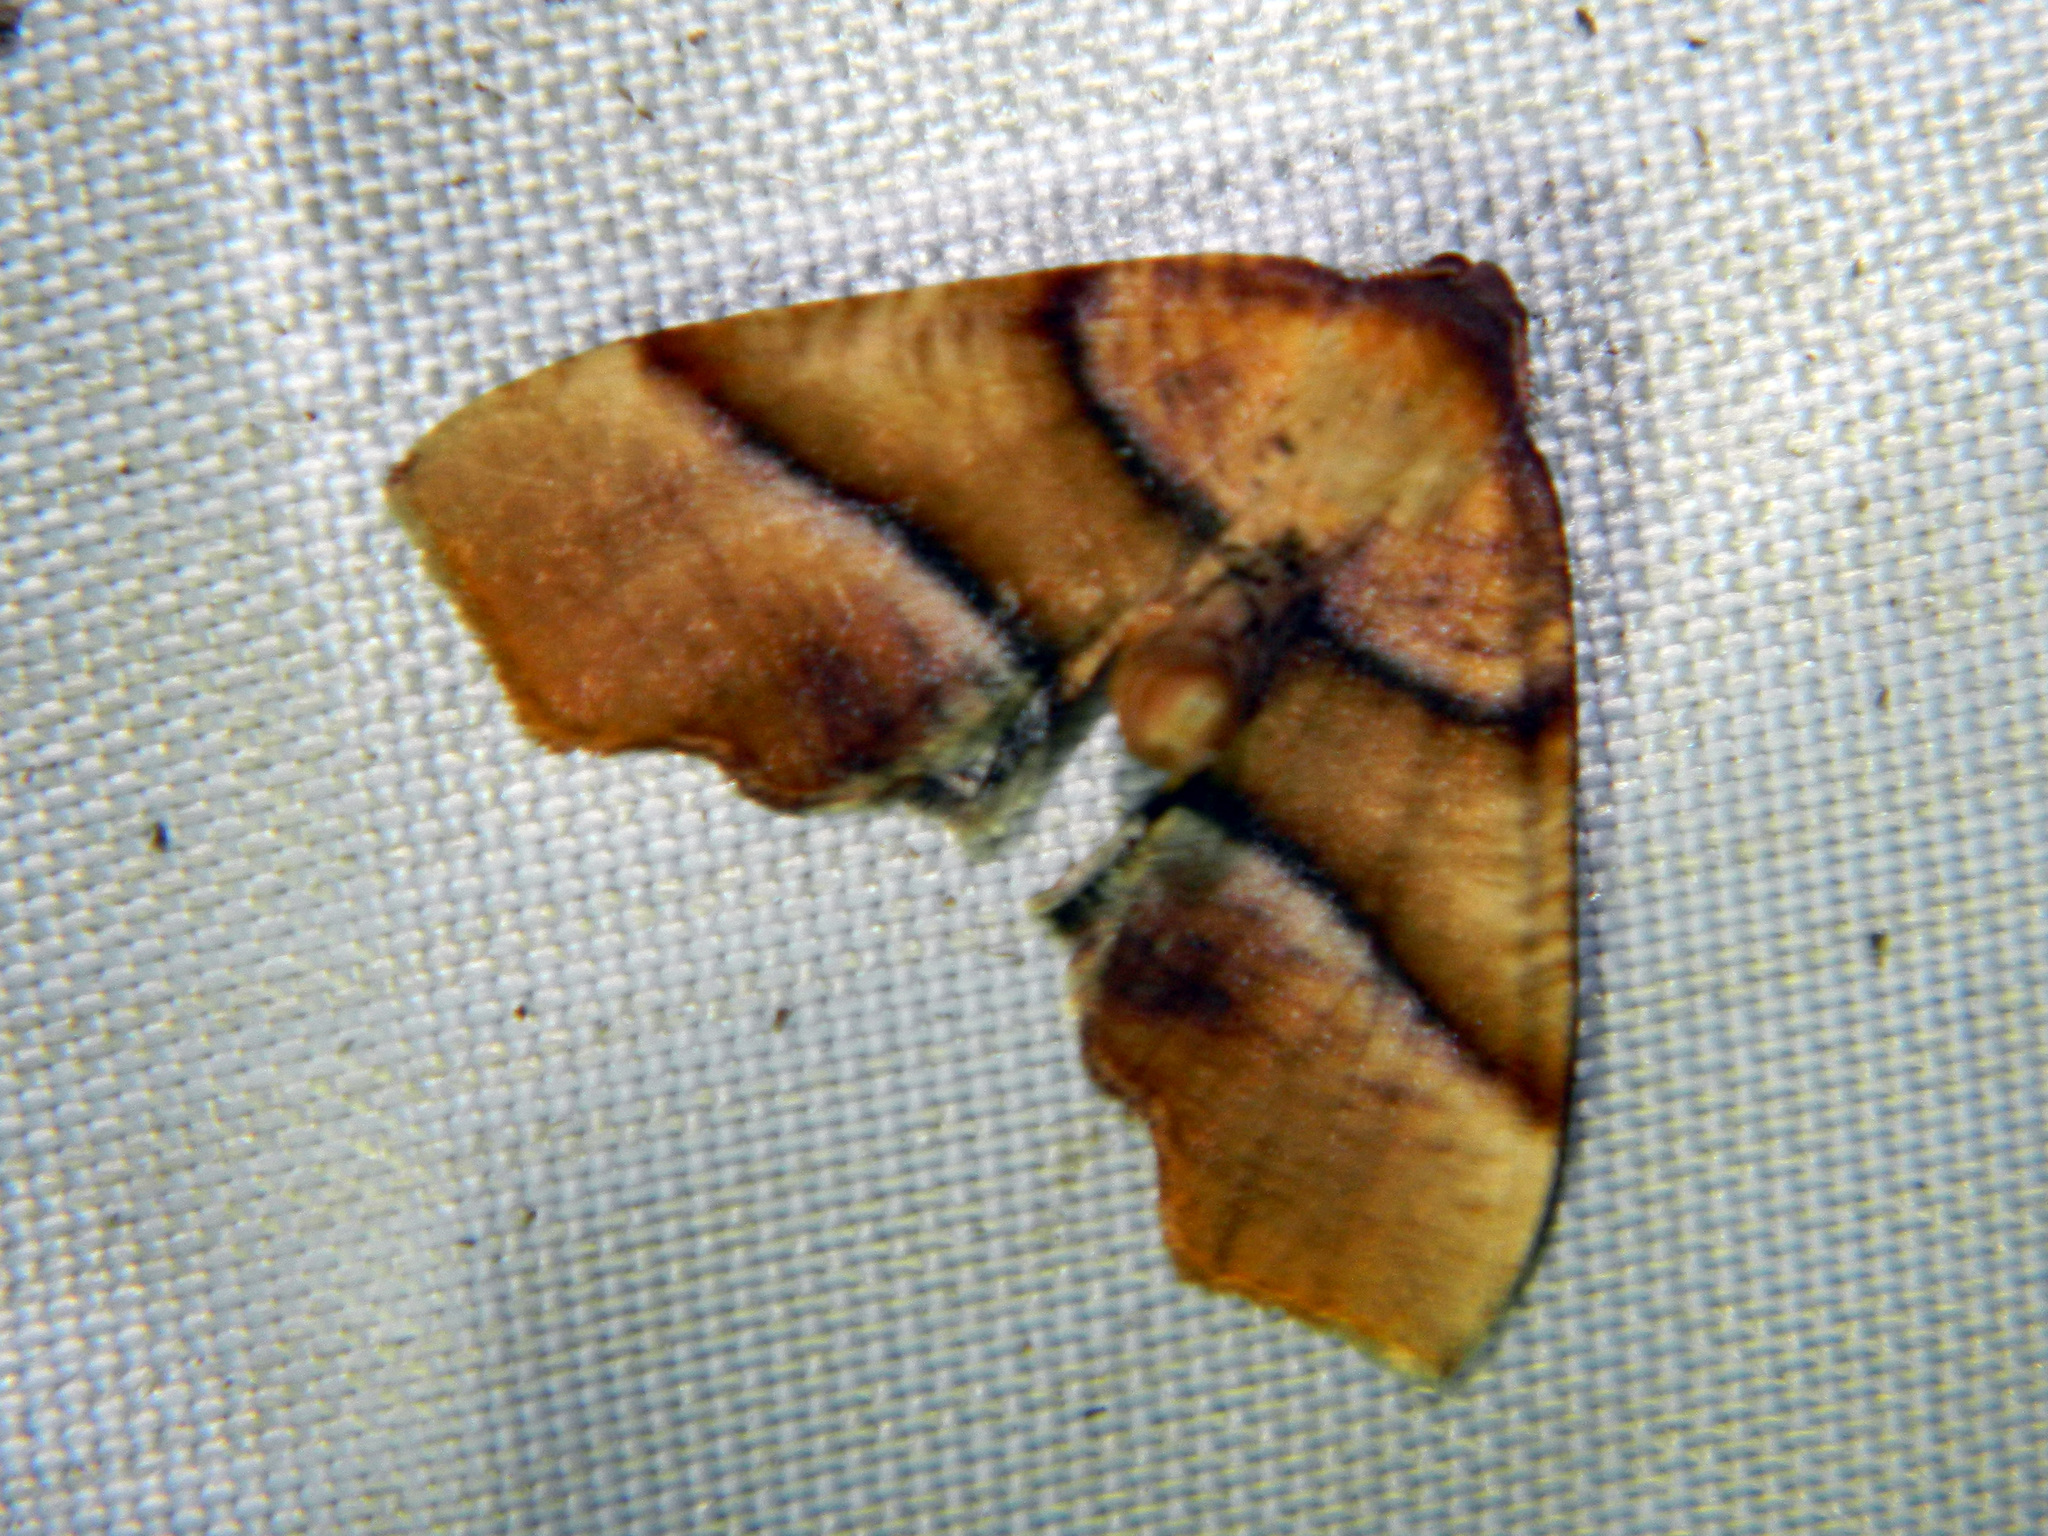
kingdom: Animalia
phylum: Arthropoda
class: Insecta
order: Lepidoptera
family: Geometridae
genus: Plagodis
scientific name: Plagodis phlogosaria
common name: Straight-lined plagodis
